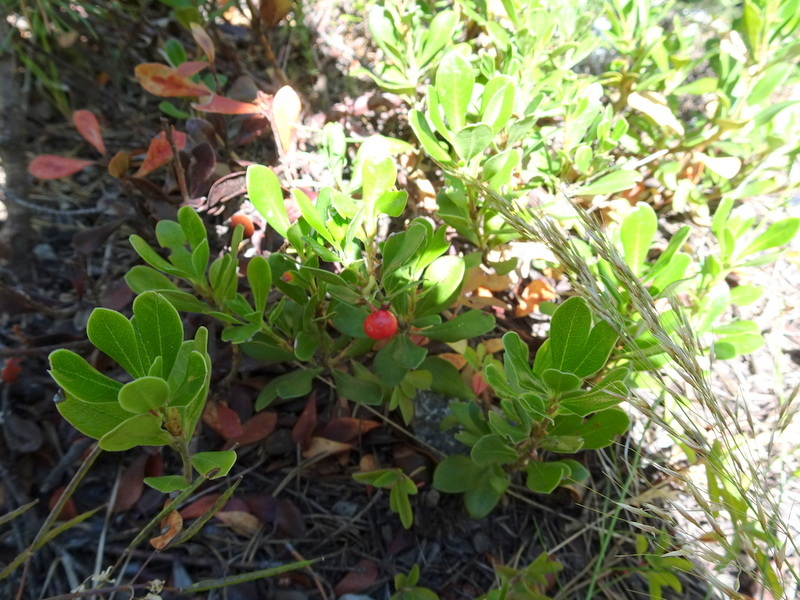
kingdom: Plantae
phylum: Tracheophyta
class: Magnoliopsida
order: Ericales
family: Ericaceae
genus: Arctostaphylos
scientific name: Arctostaphylos uva-ursi
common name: Bearberry
